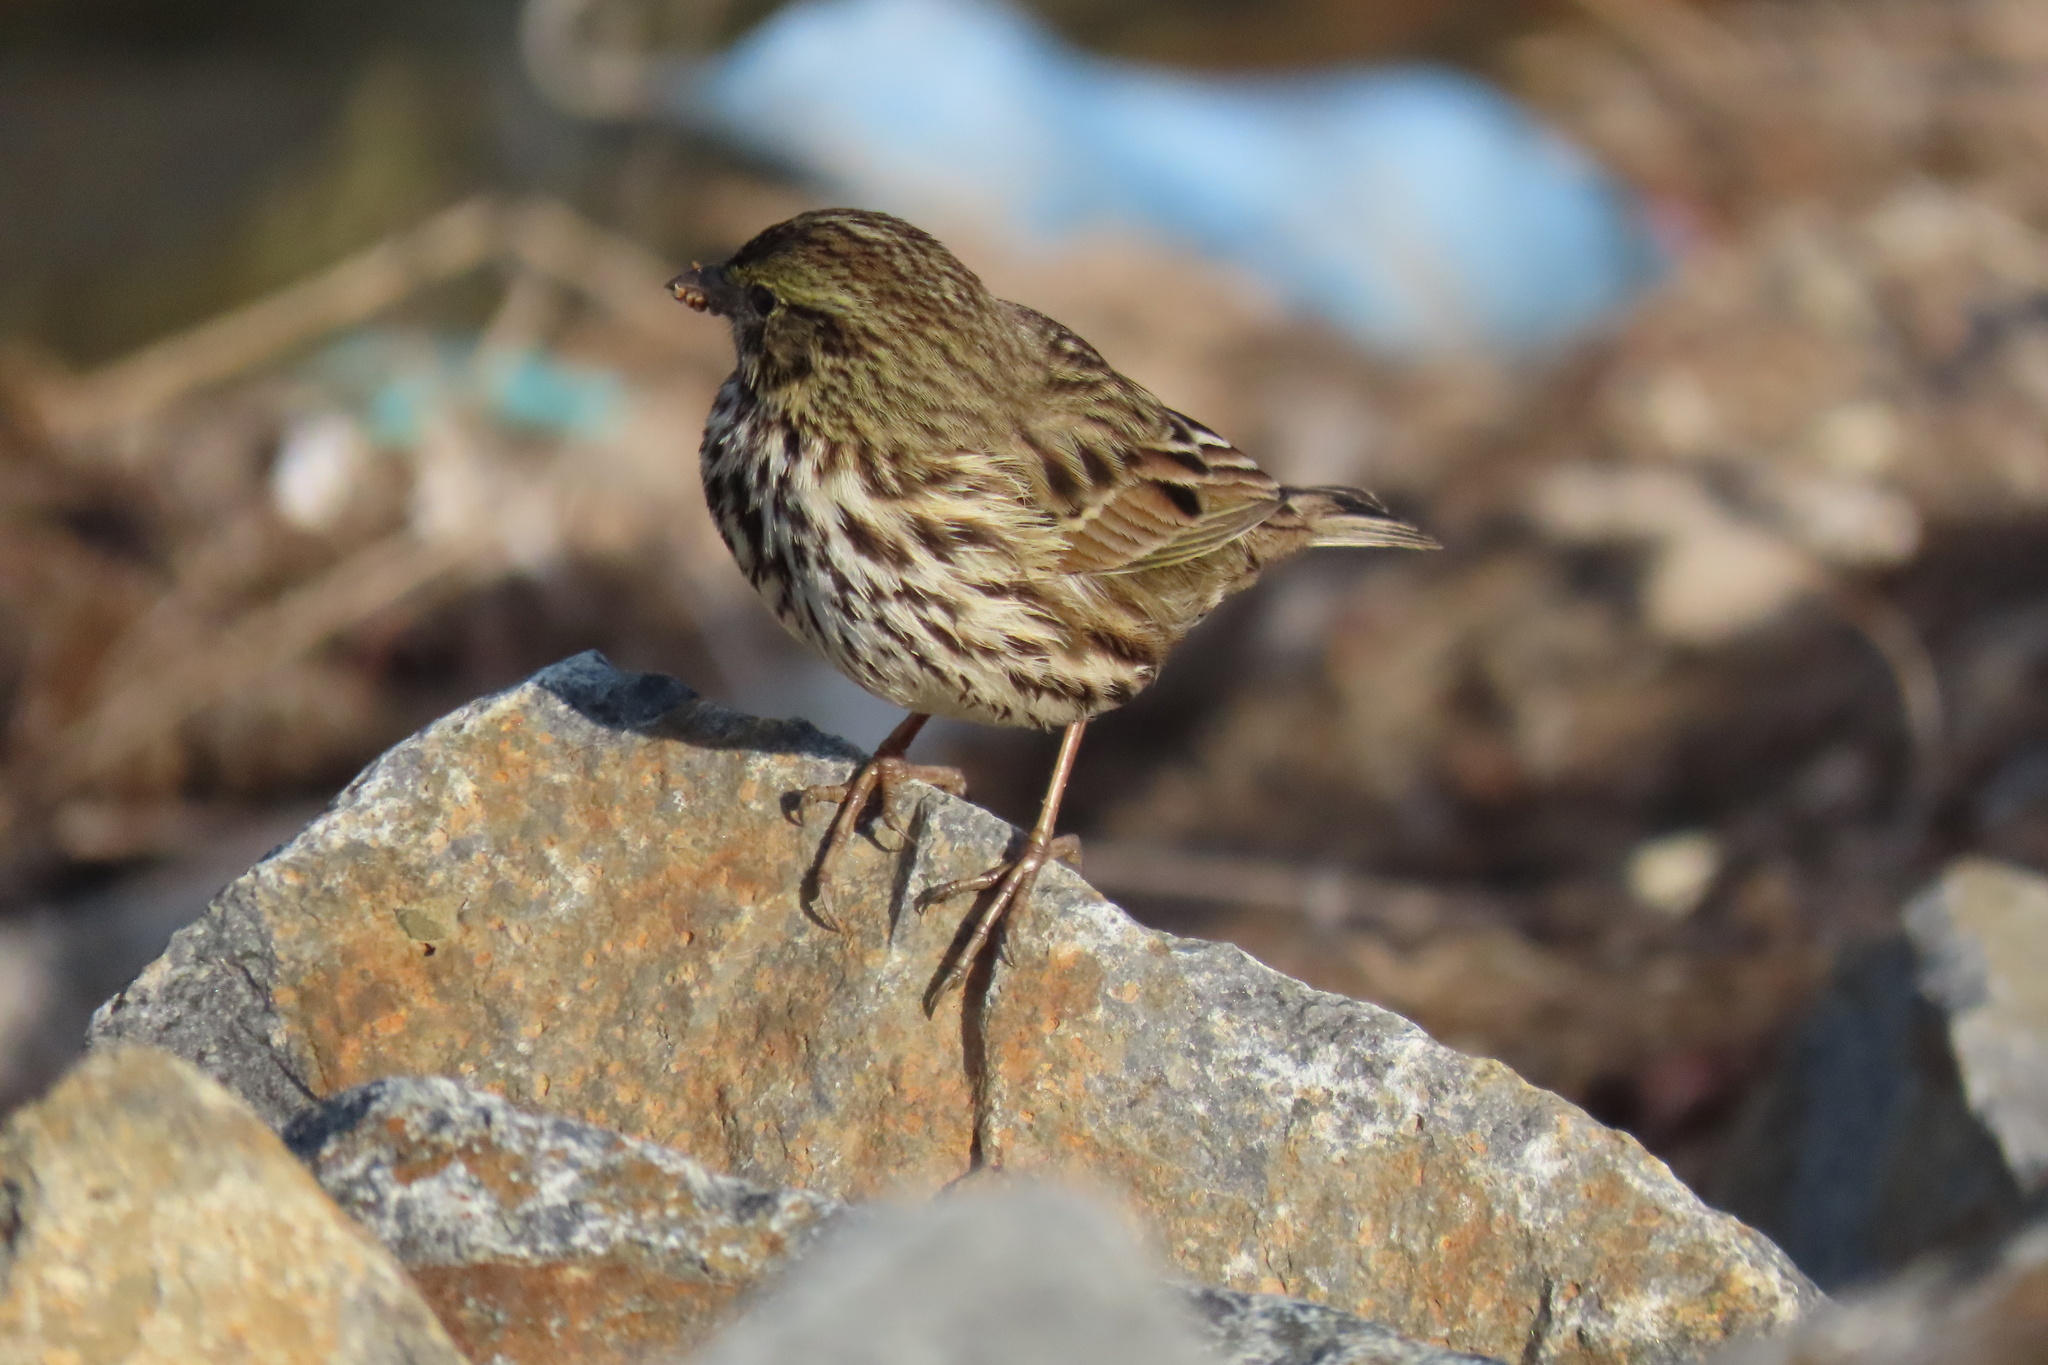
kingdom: Animalia
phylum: Chordata
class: Aves
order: Passeriformes
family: Passerellidae
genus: Passerculus
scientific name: Passerculus sandwichensis
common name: Savannah sparrow
